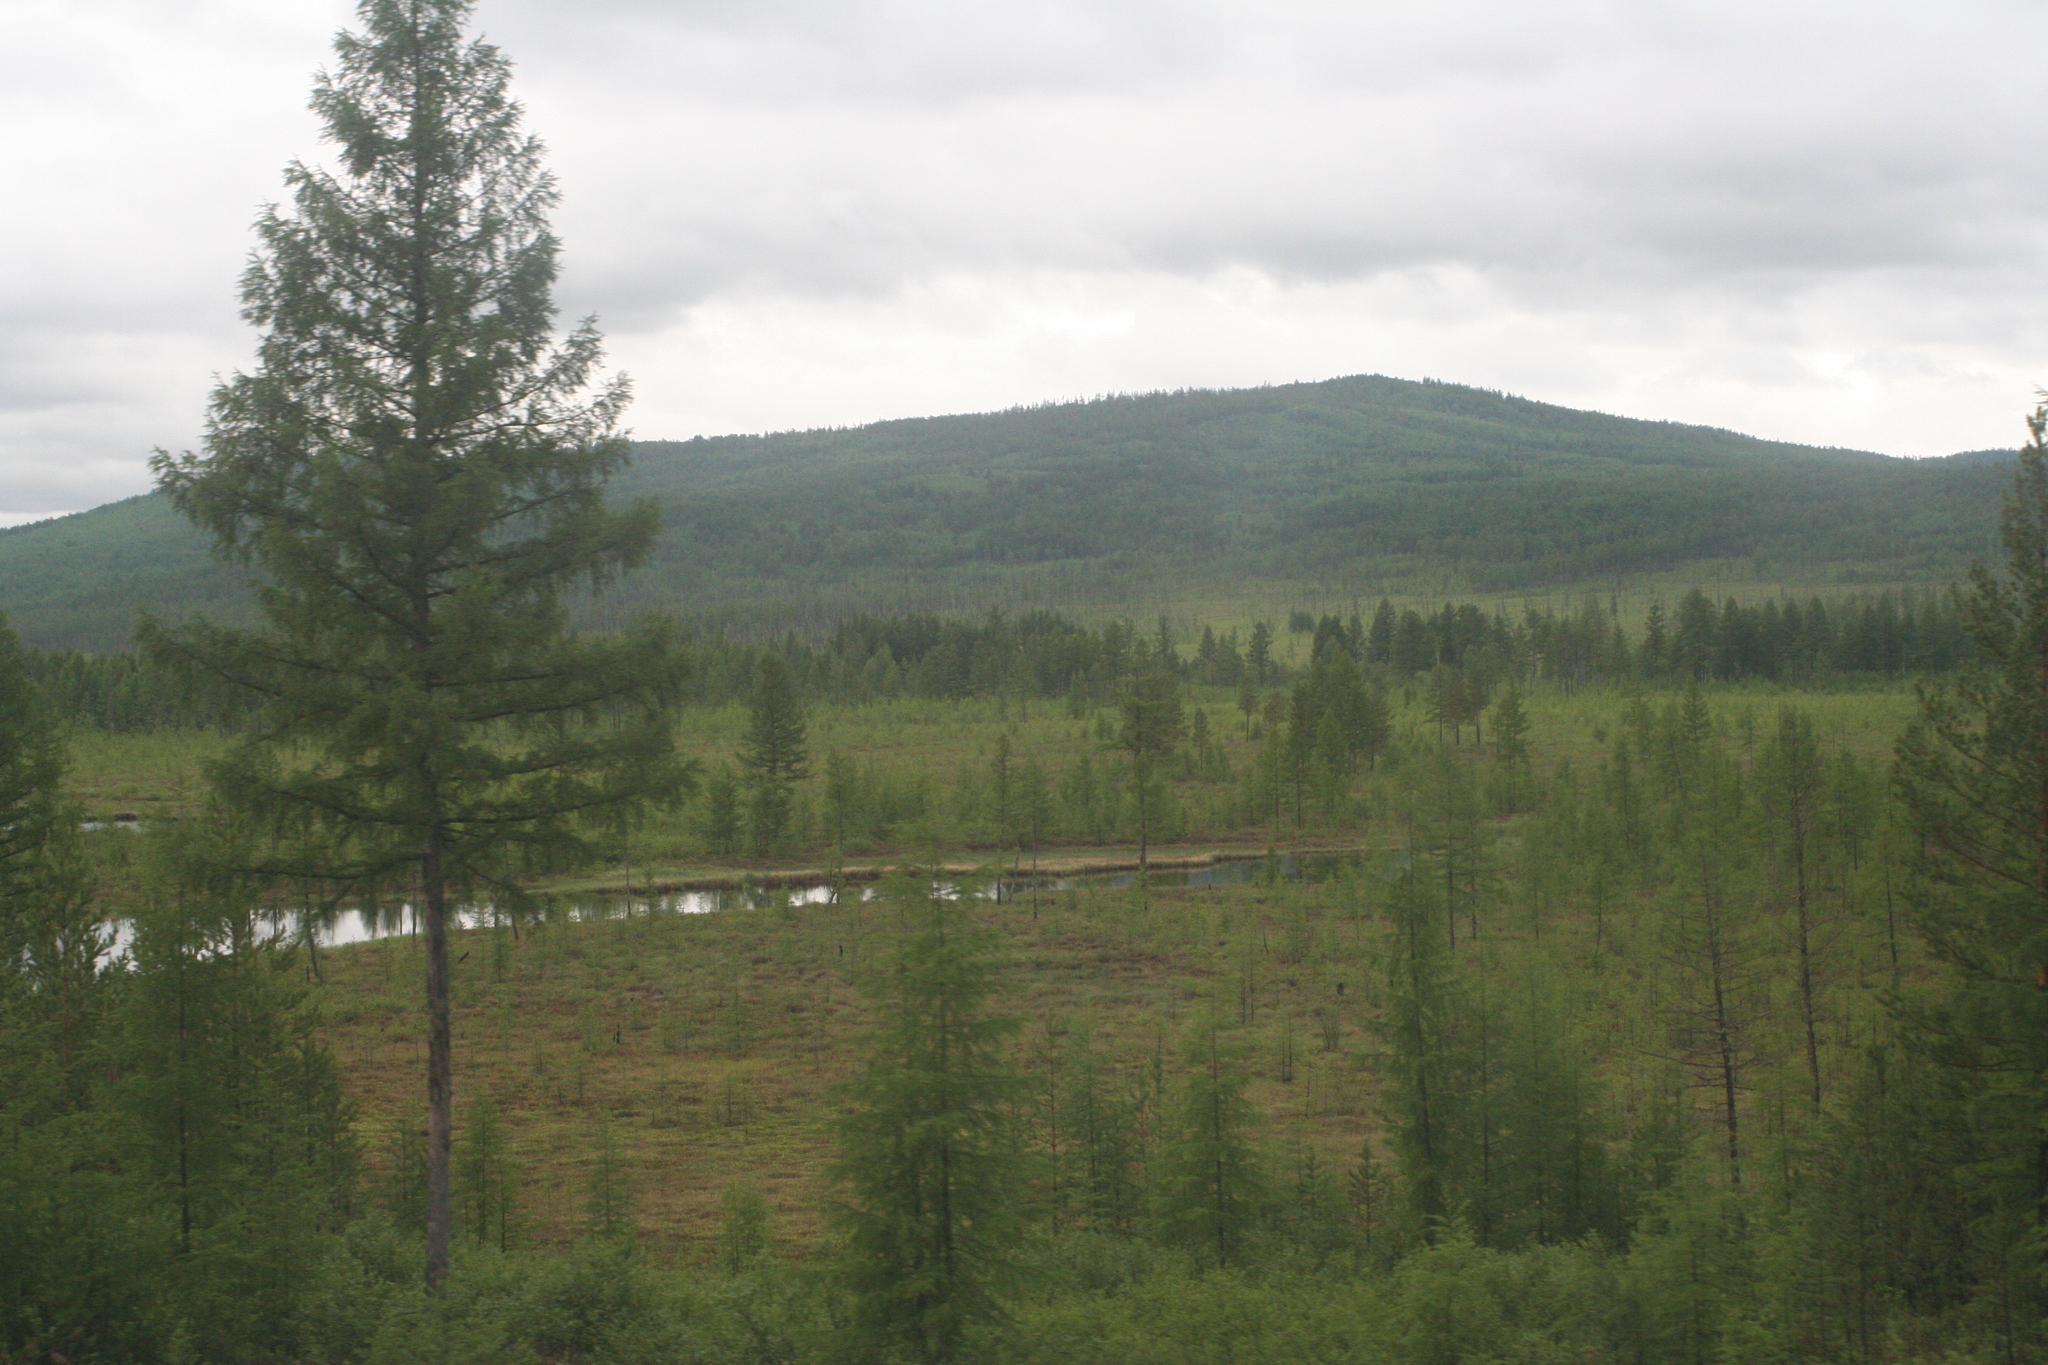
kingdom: Plantae
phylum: Tracheophyta
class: Pinopsida
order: Pinales
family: Pinaceae
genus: Larix
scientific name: Larix gmelinii
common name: Dahurian larch
